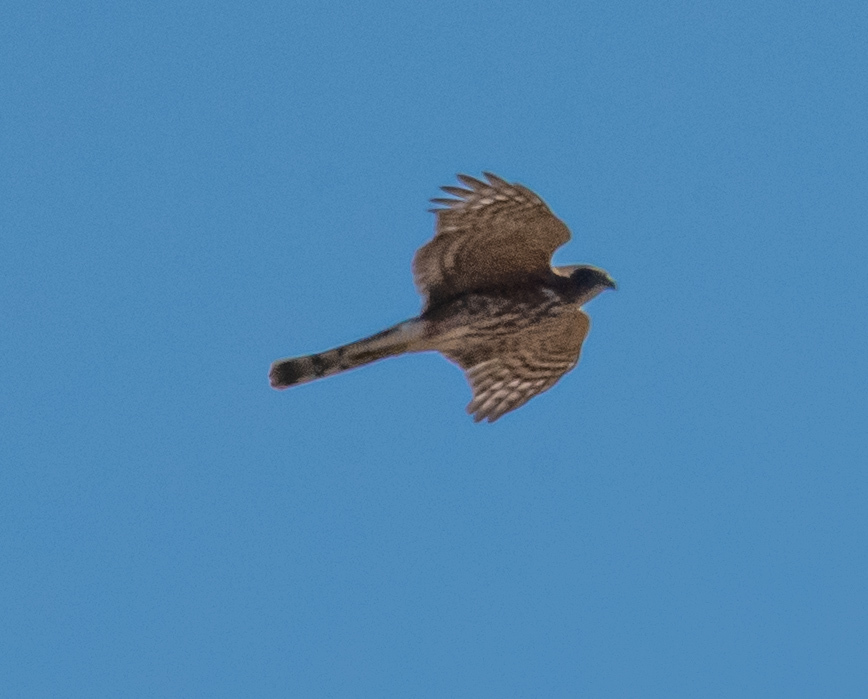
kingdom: Animalia
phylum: Chordata
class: Aves
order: Accipitriformes
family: Accipitridae
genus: Accipiter
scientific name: Accipiter cooperii
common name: Cooper's hawk
